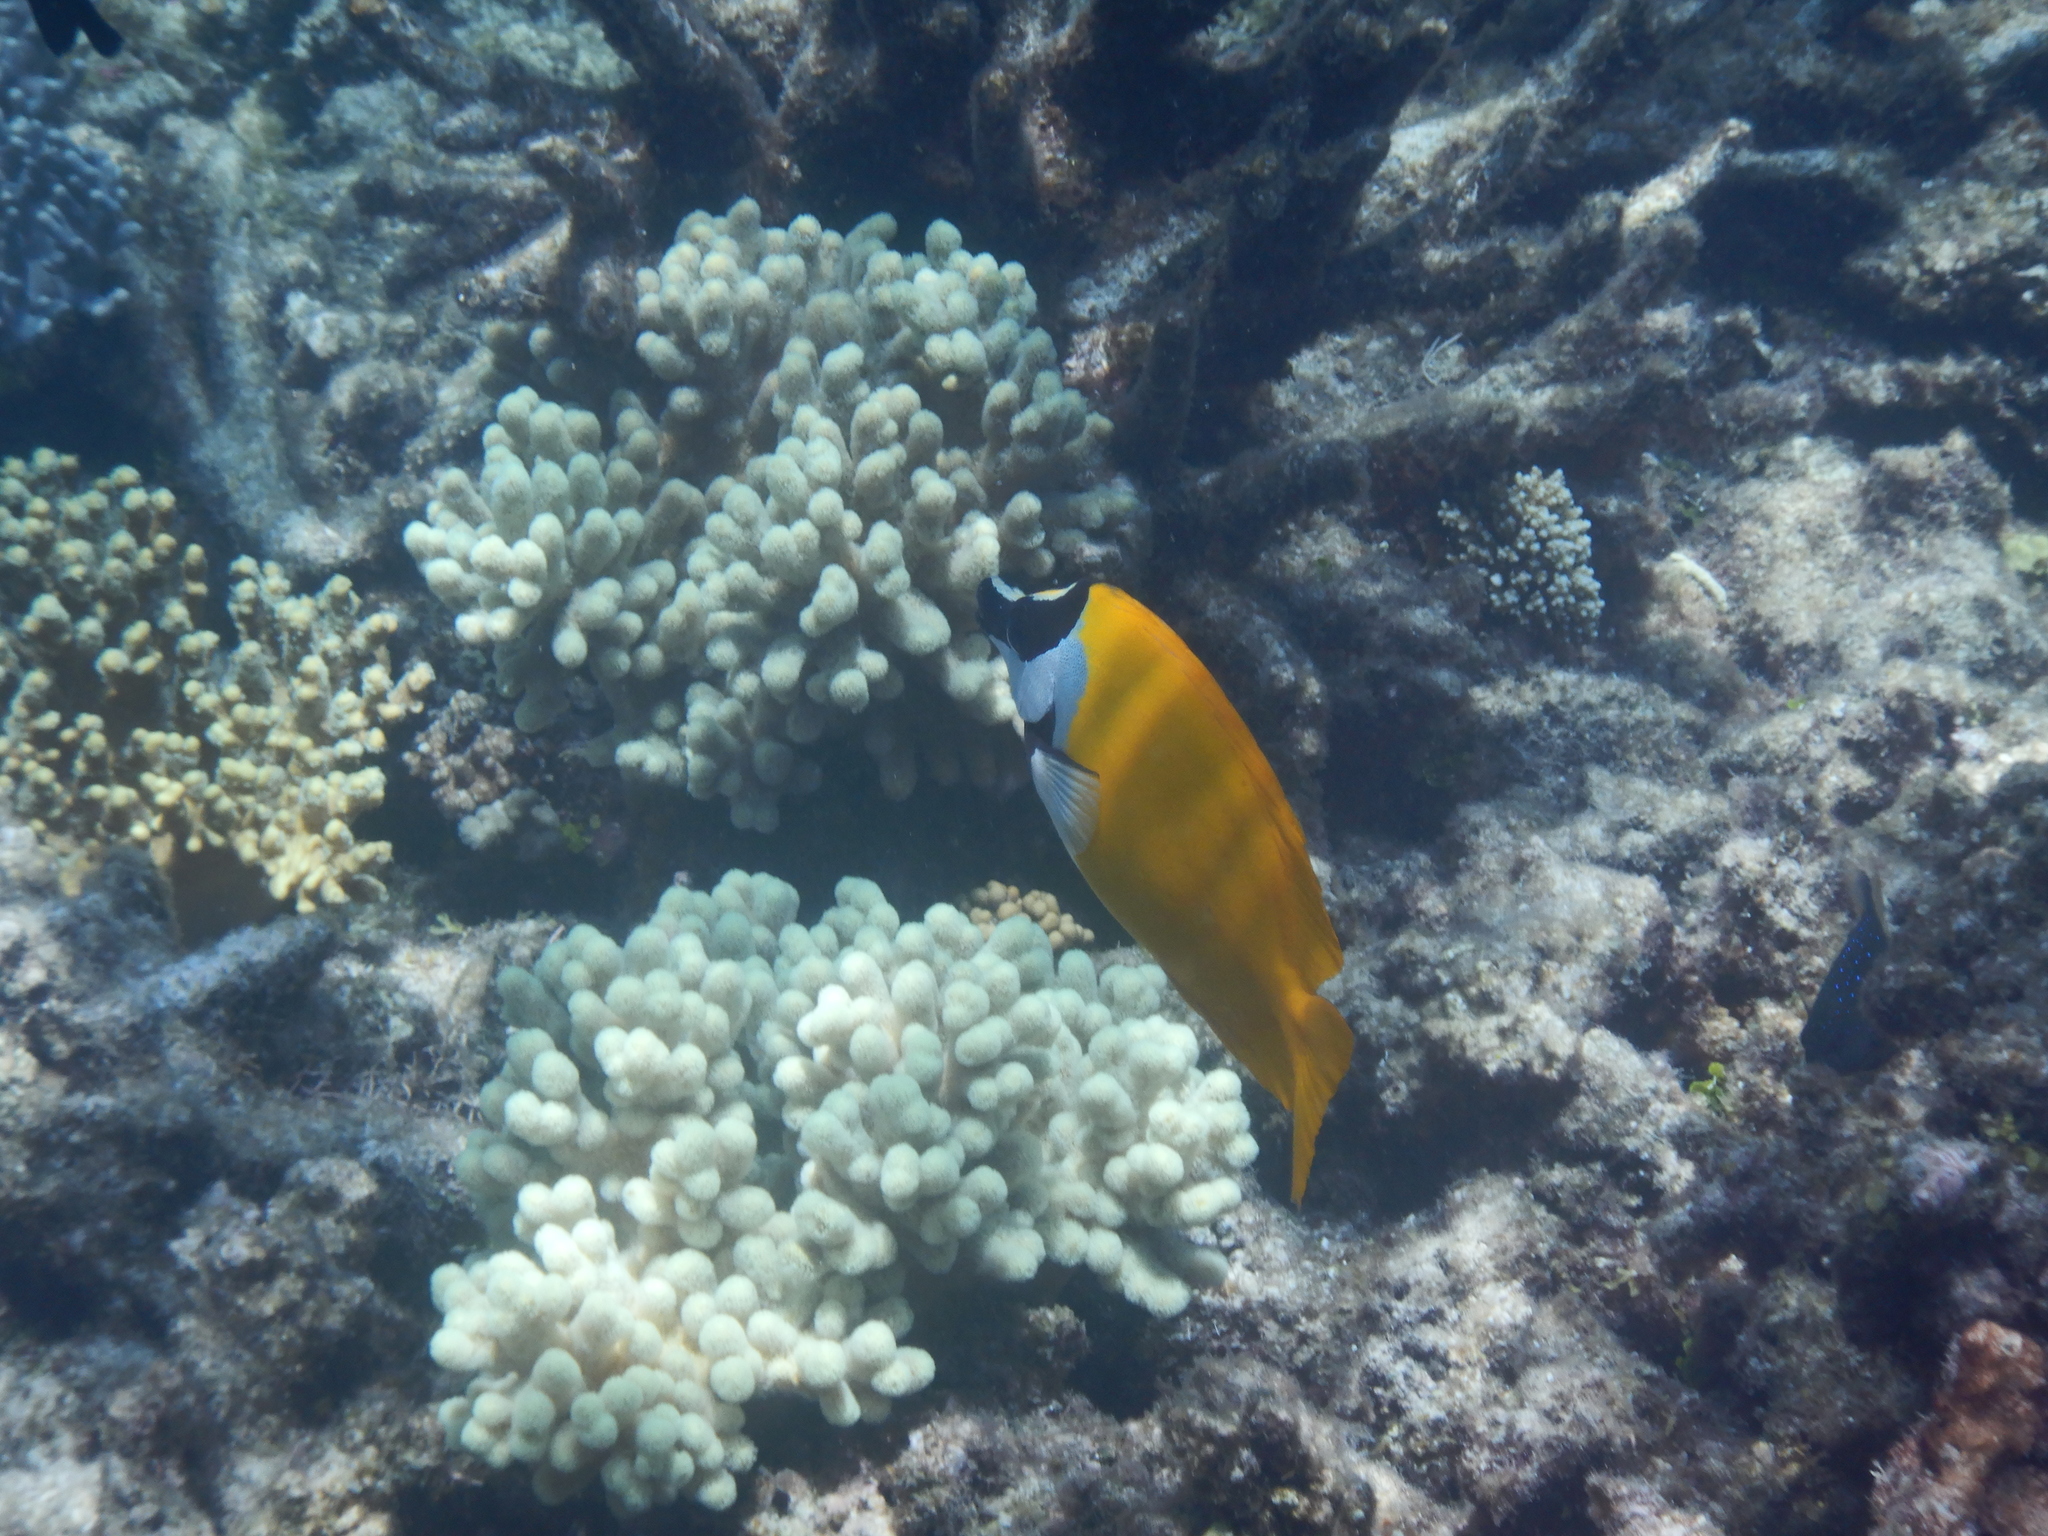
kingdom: Animalia
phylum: Chordata
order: Perciformes
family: Siganidae
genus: Siganus
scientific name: Siganus vulpinus
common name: Foxface
